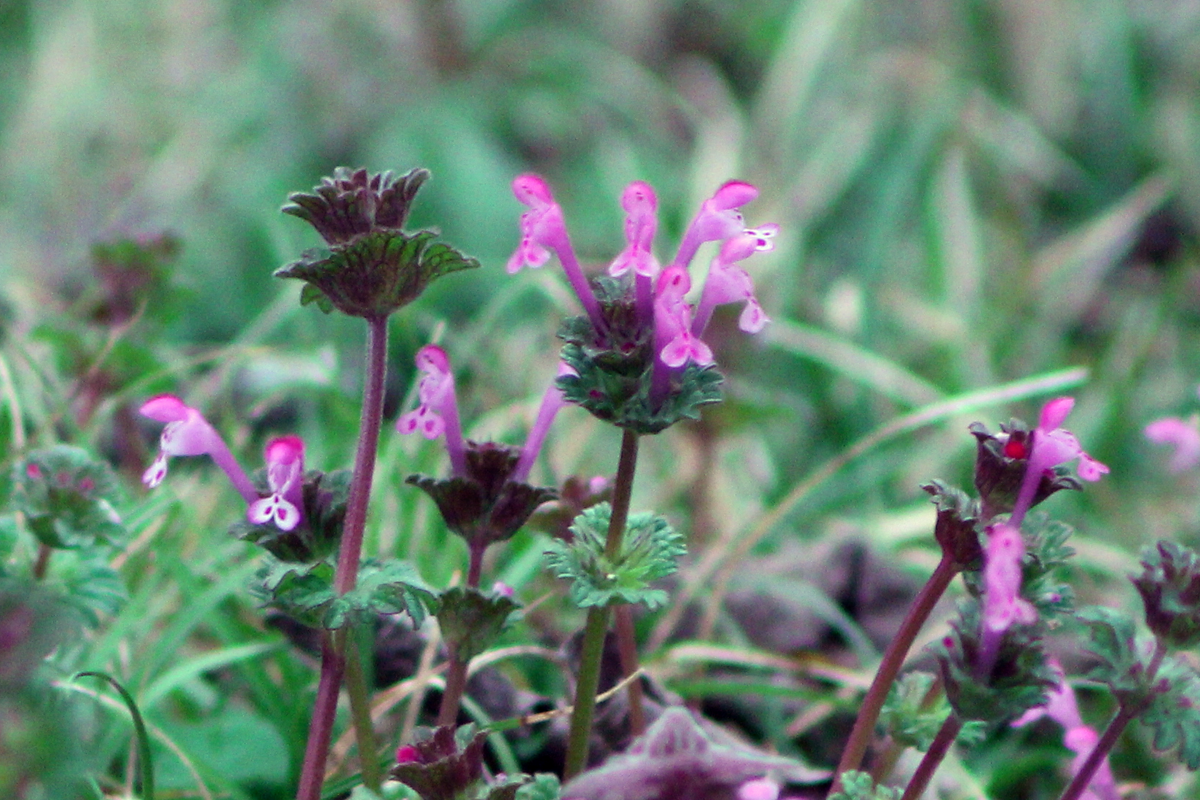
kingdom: Plantae
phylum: Tracheophyta
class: Magnoliopsida
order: Lamiales
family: Lamiaceae
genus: Lamium
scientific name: Lamium amplexicaule
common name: Henbit dead-nettle
